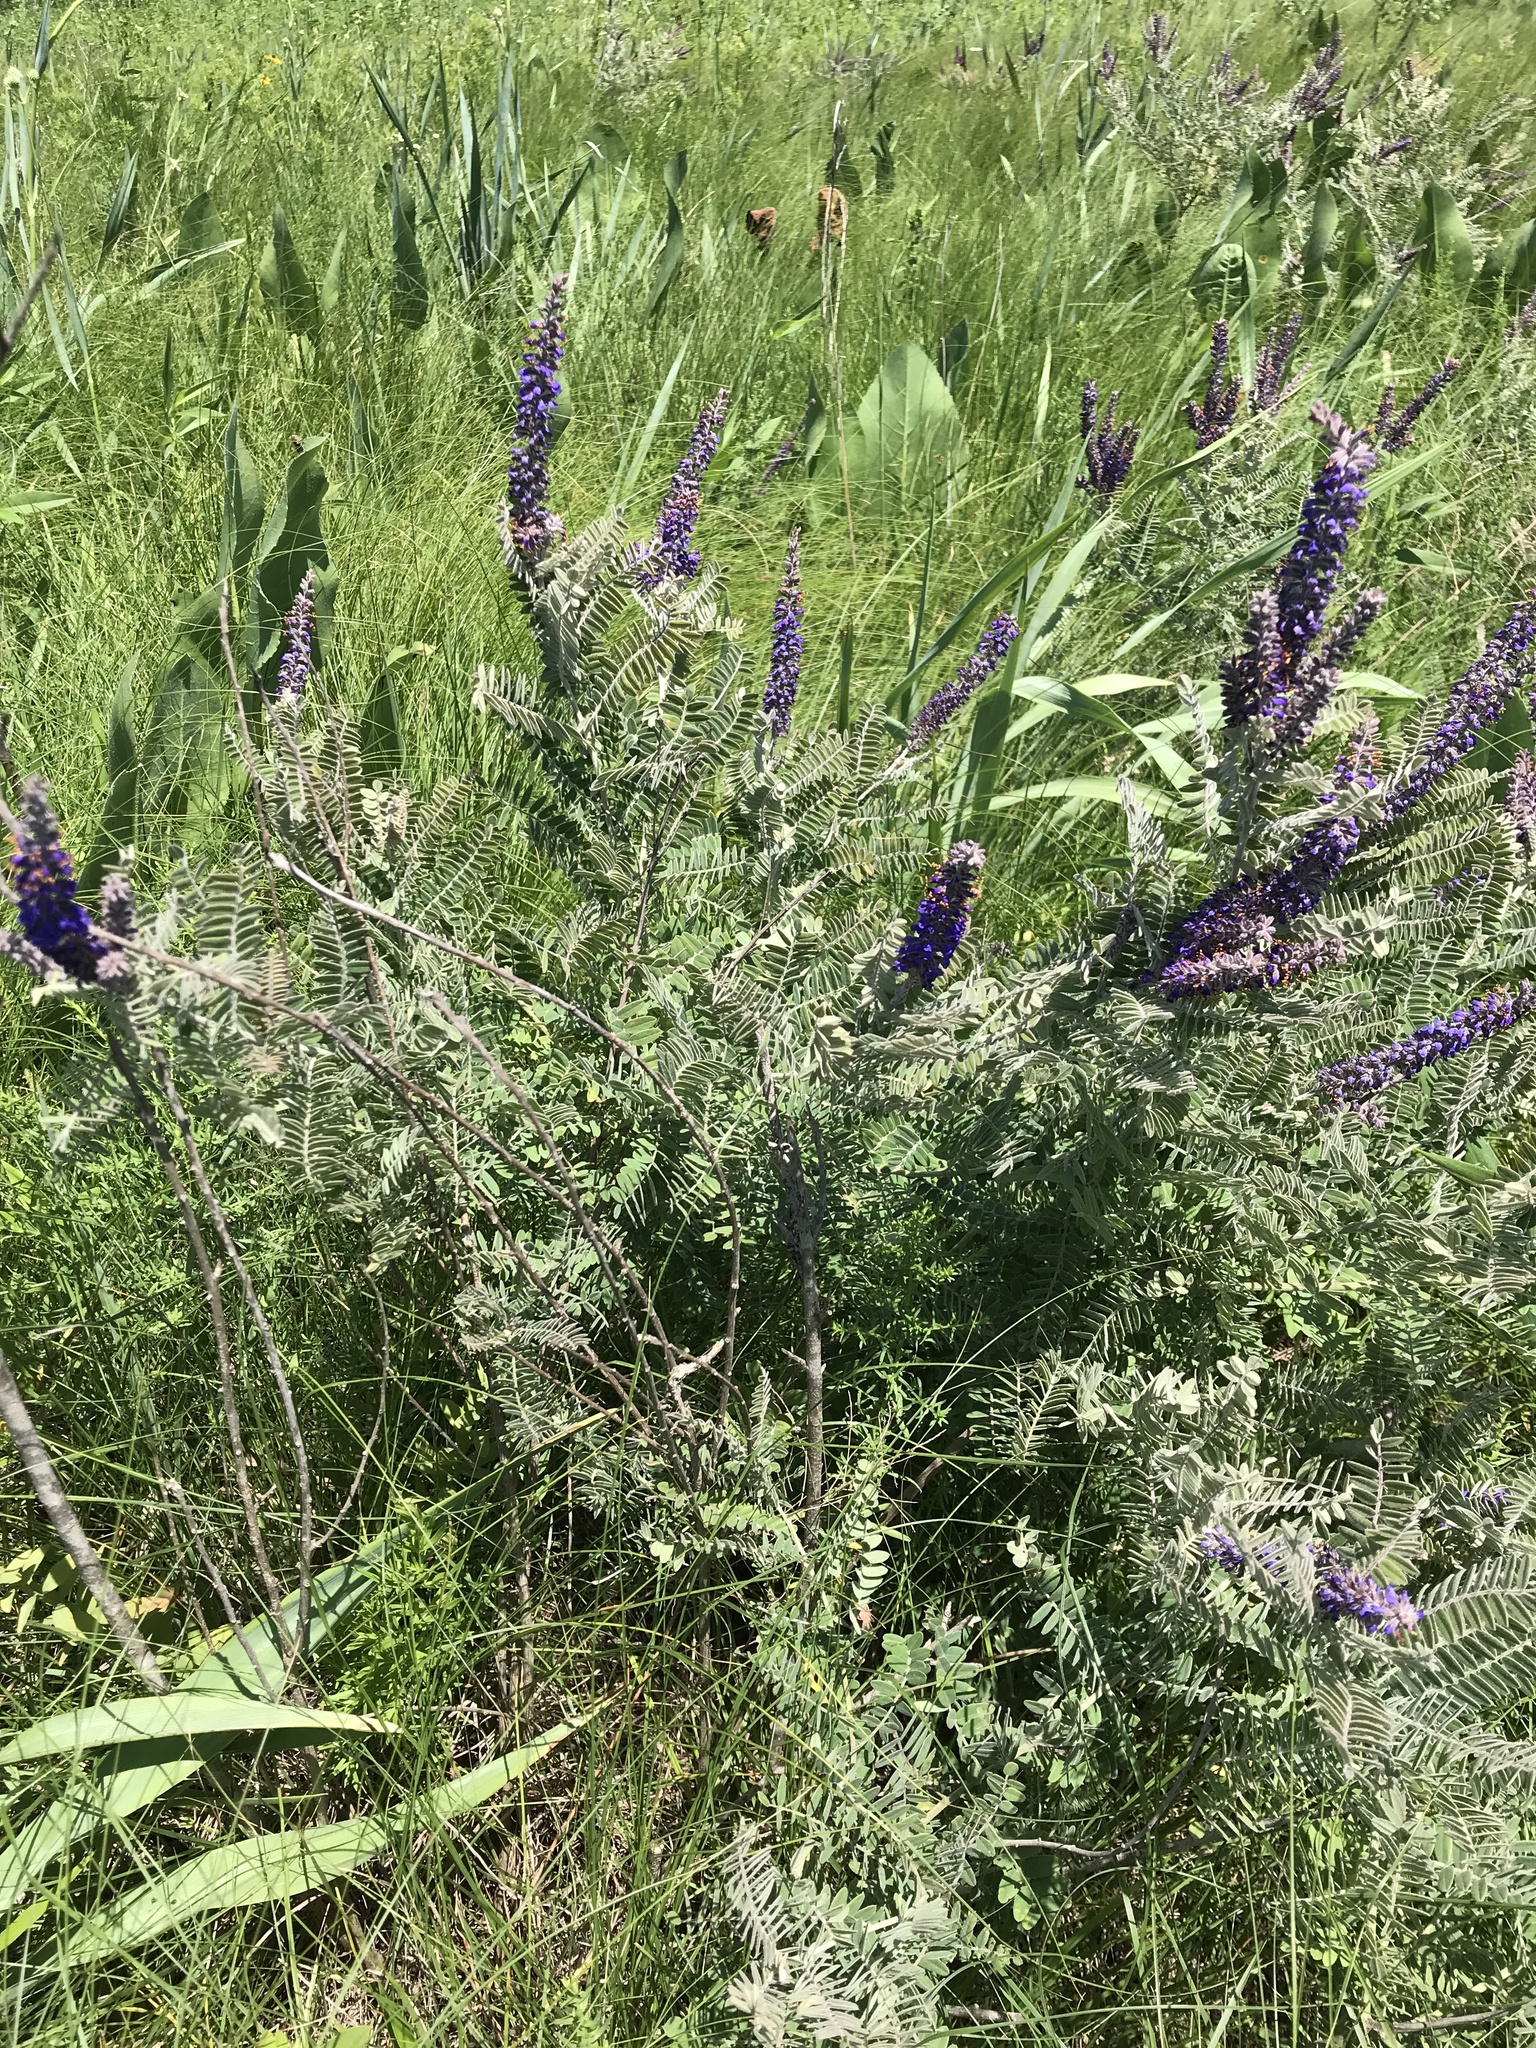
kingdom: Plantae
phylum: Tracheophyta
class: Magnoliopsida
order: Fabales
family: Fabaceae
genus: Amorpha
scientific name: Amorpha canescens
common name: Leadplant
